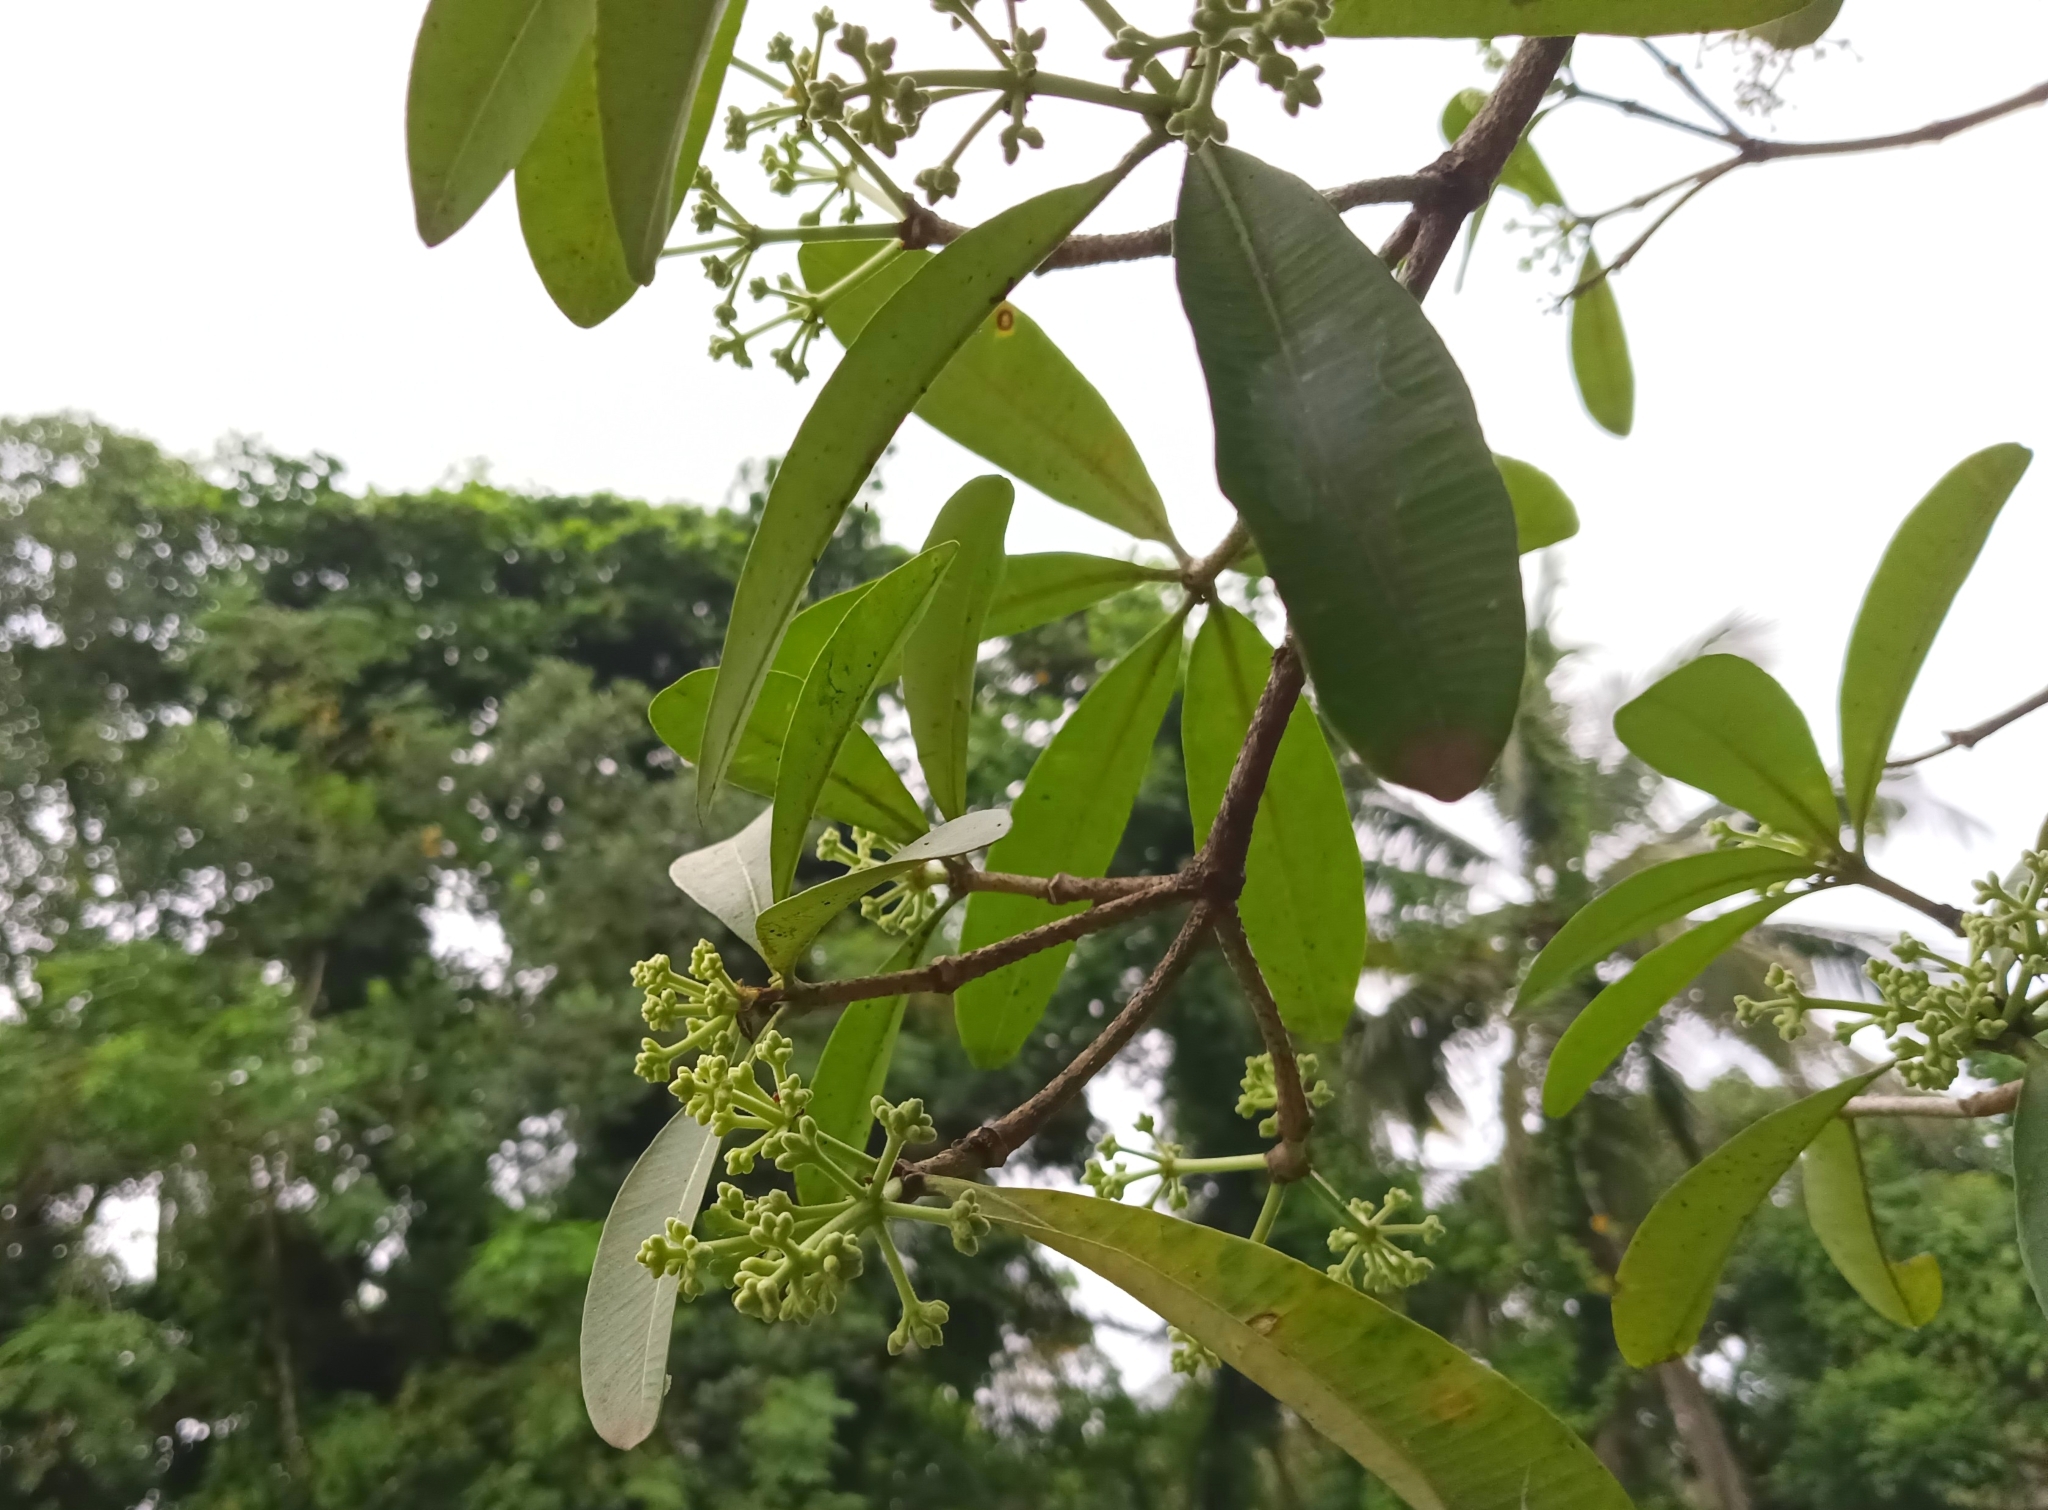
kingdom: Plantae
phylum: Tracheophyta
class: Magnoliopsida
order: Gentianales
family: Apocynaceae
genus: Alstonia
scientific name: Alstonia scholaris
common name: White cheesewood
